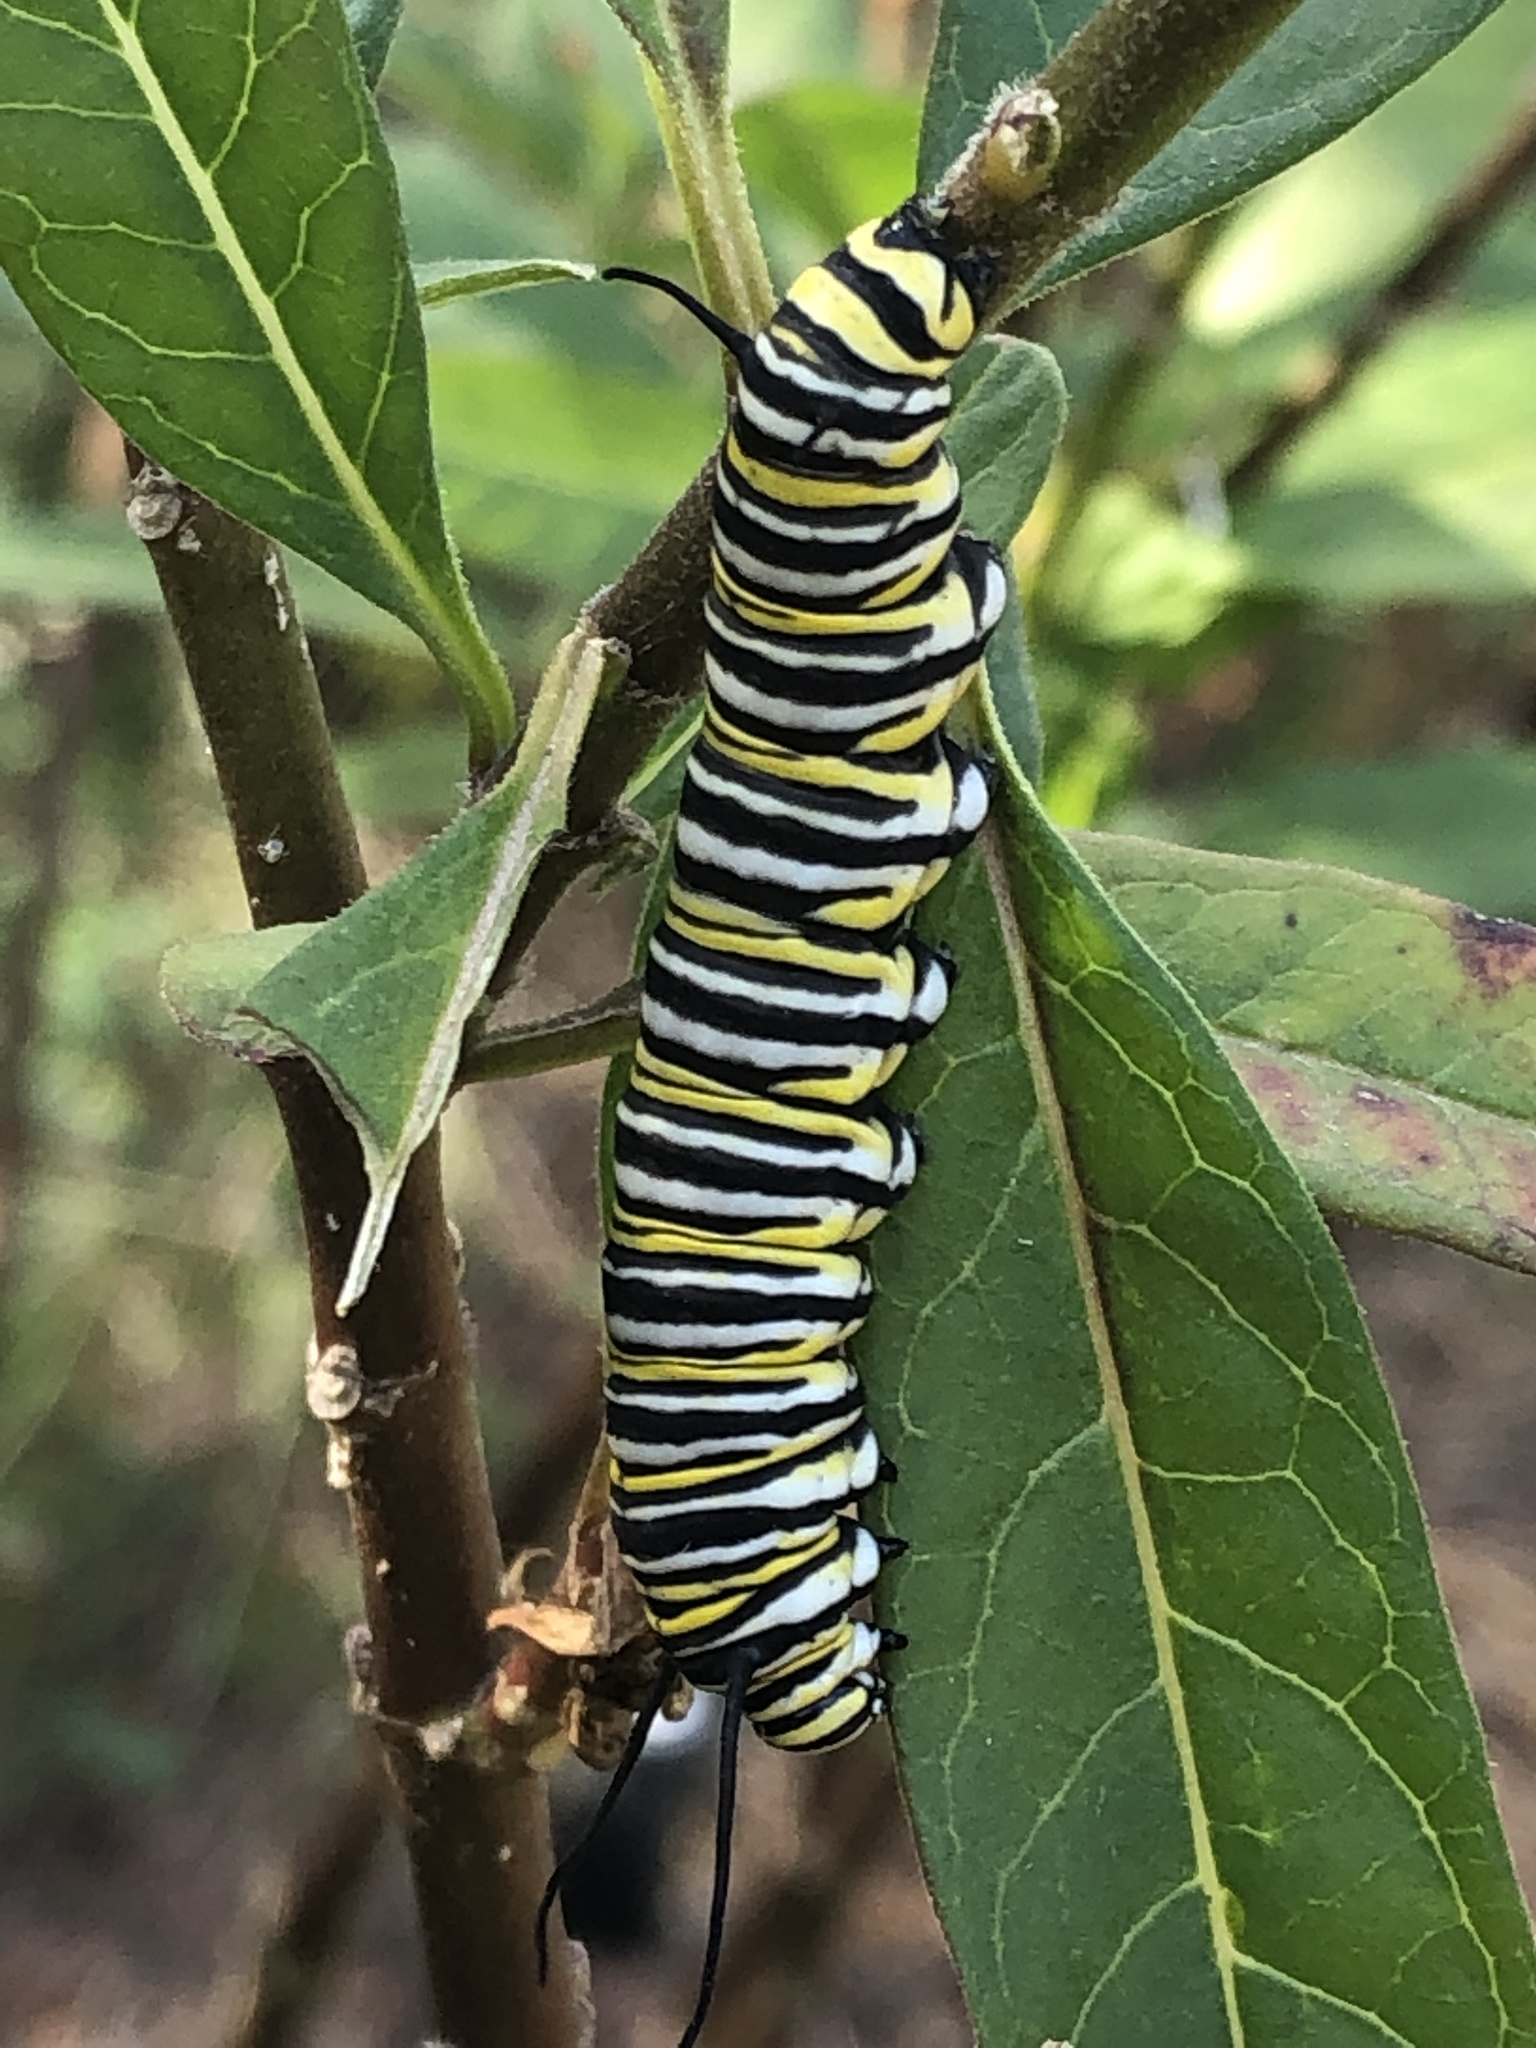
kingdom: Animalia
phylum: Arthropoda
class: Insecta
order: Lepidoptera
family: Nymphalidae
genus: Danaus
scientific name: Danaus plexippus
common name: Monarch
